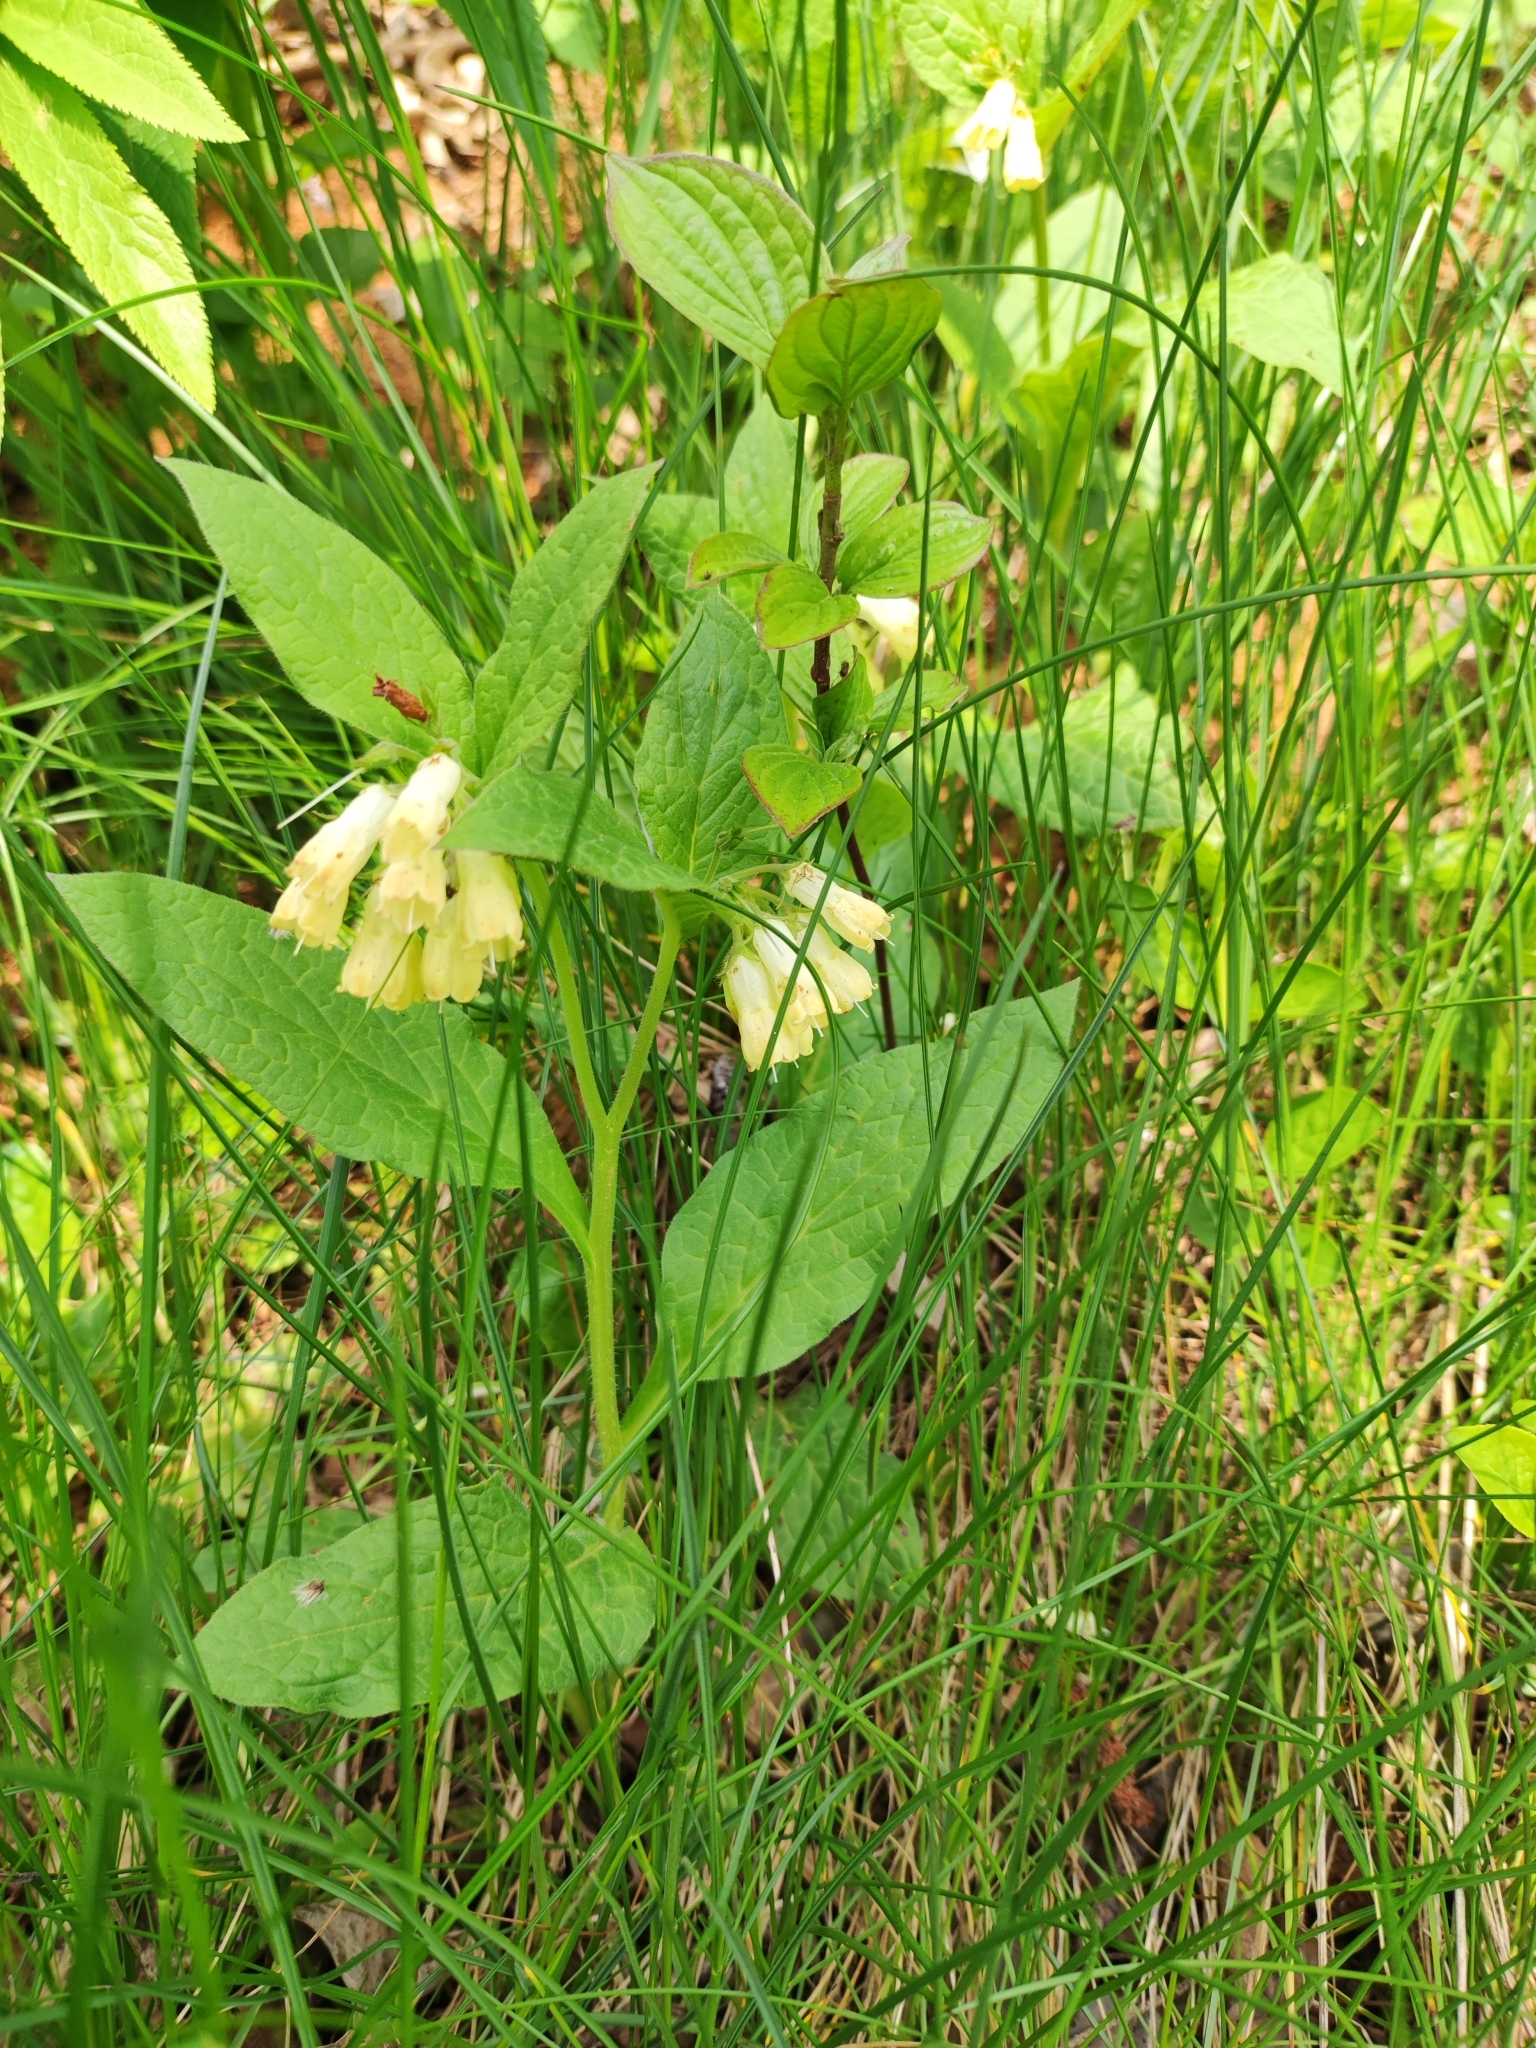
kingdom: Plantae
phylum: Tracheophyta
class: Magnoliopsida
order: Boraginales
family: Boraginaceae
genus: Symphytum
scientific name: Symphytum tuberosum
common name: Tuberous comfrey
